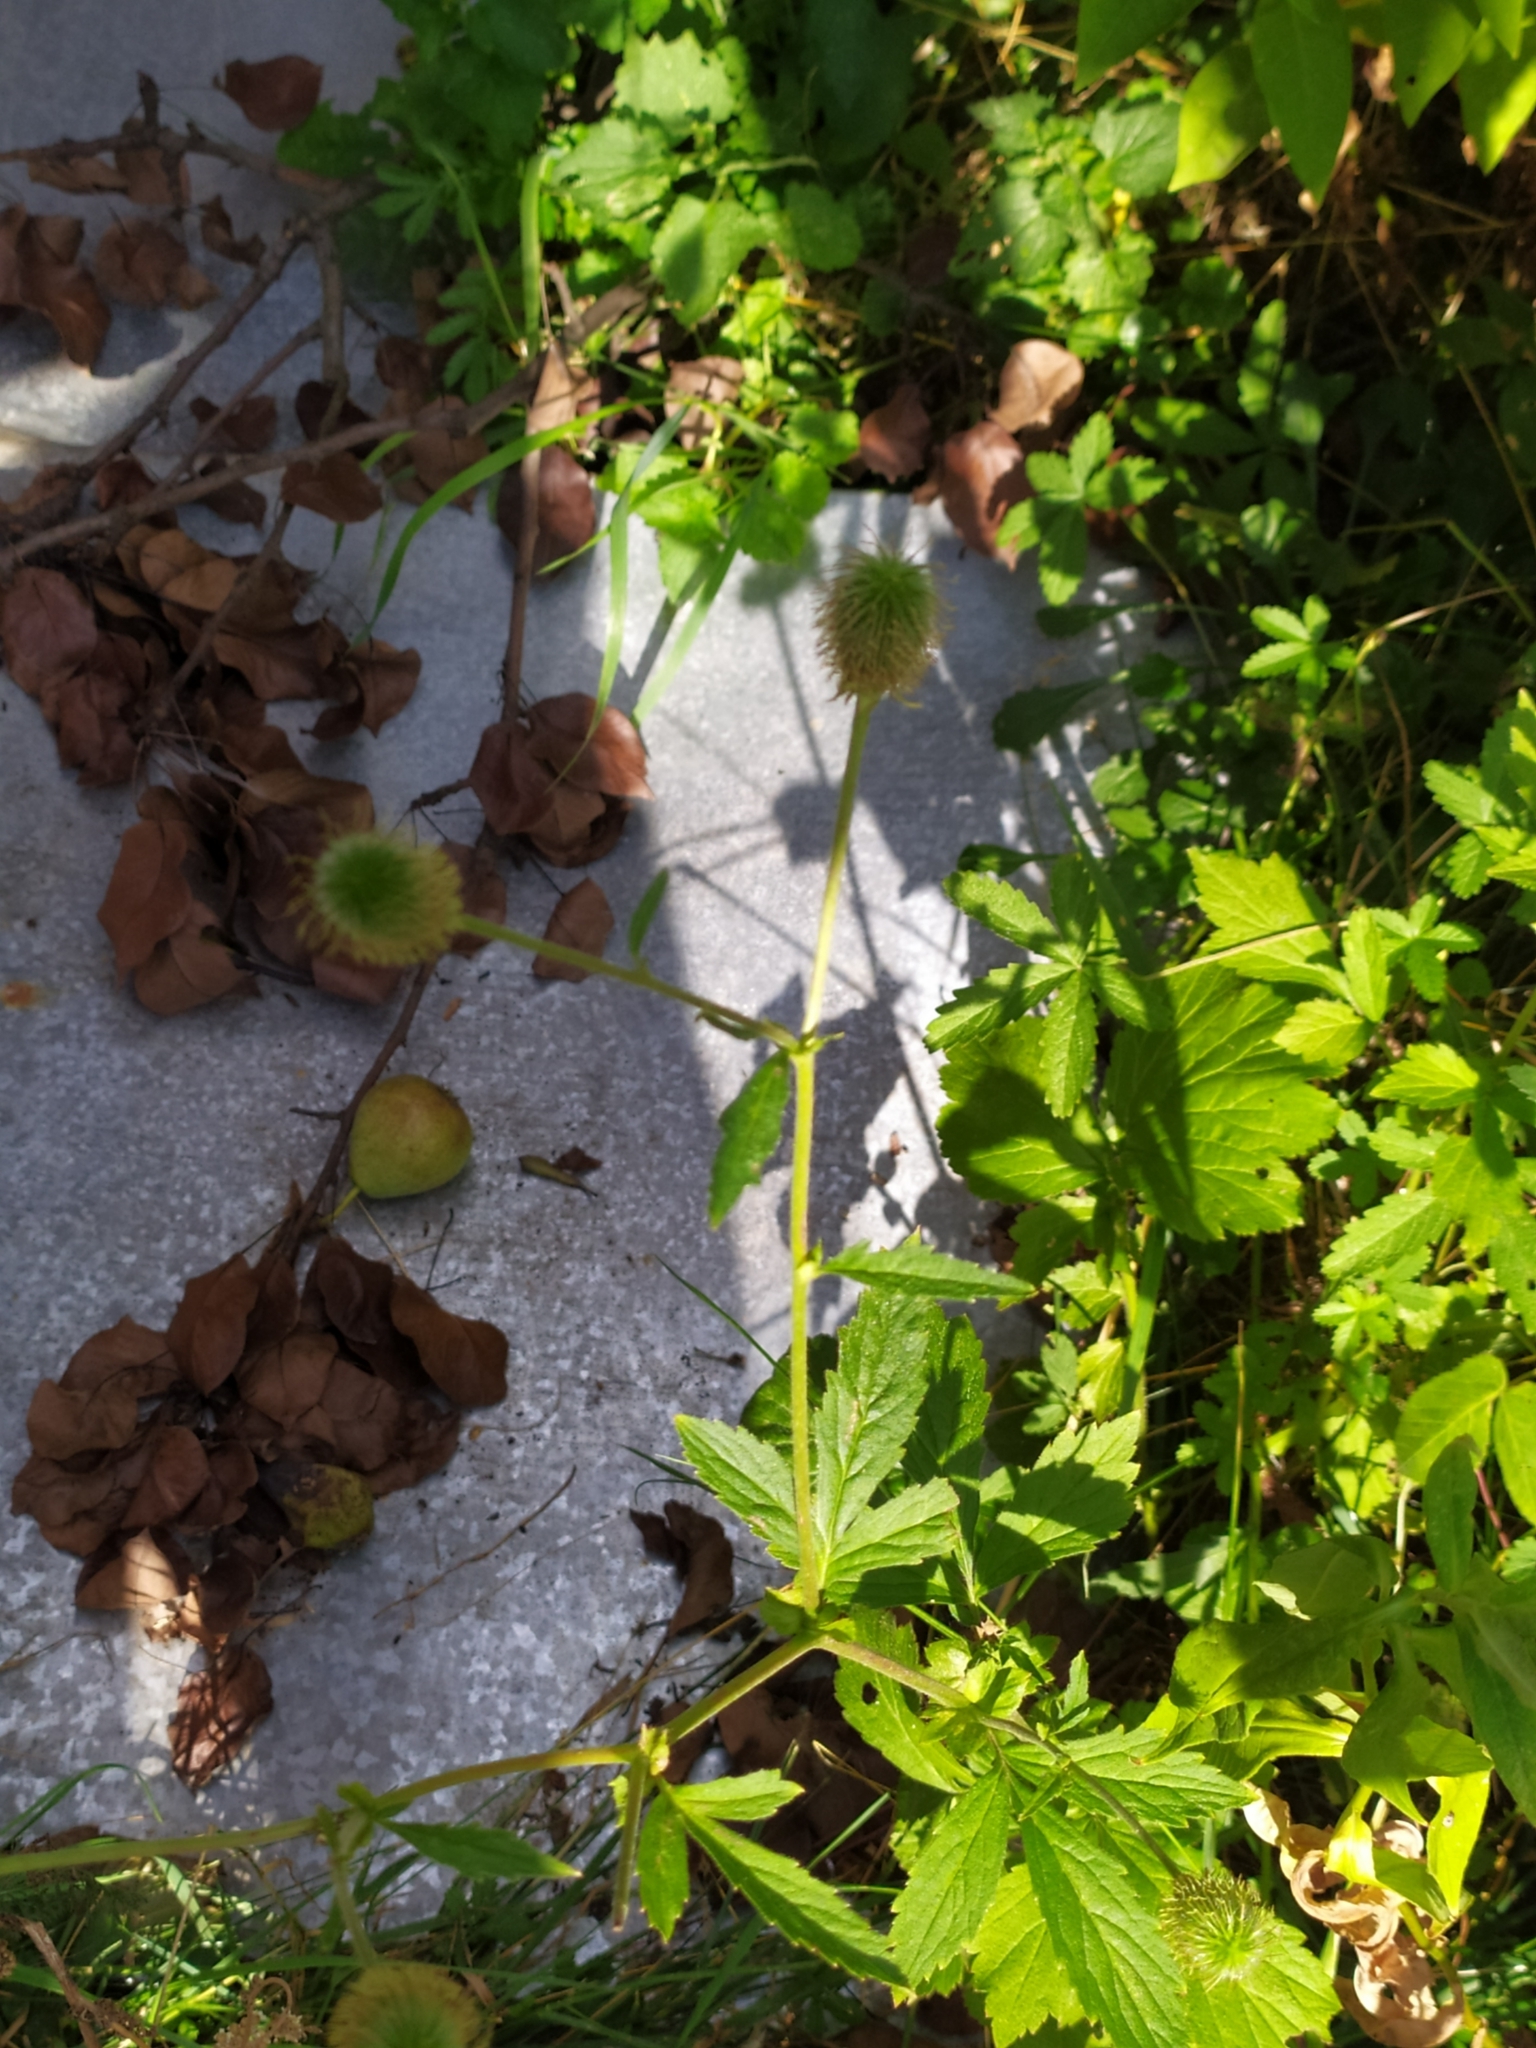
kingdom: Plantae
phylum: Tracheophyta
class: Magnoliopsida
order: Rosales
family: Rosaceae
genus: Geum
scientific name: Geum aleppicum
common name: Yellow avens
